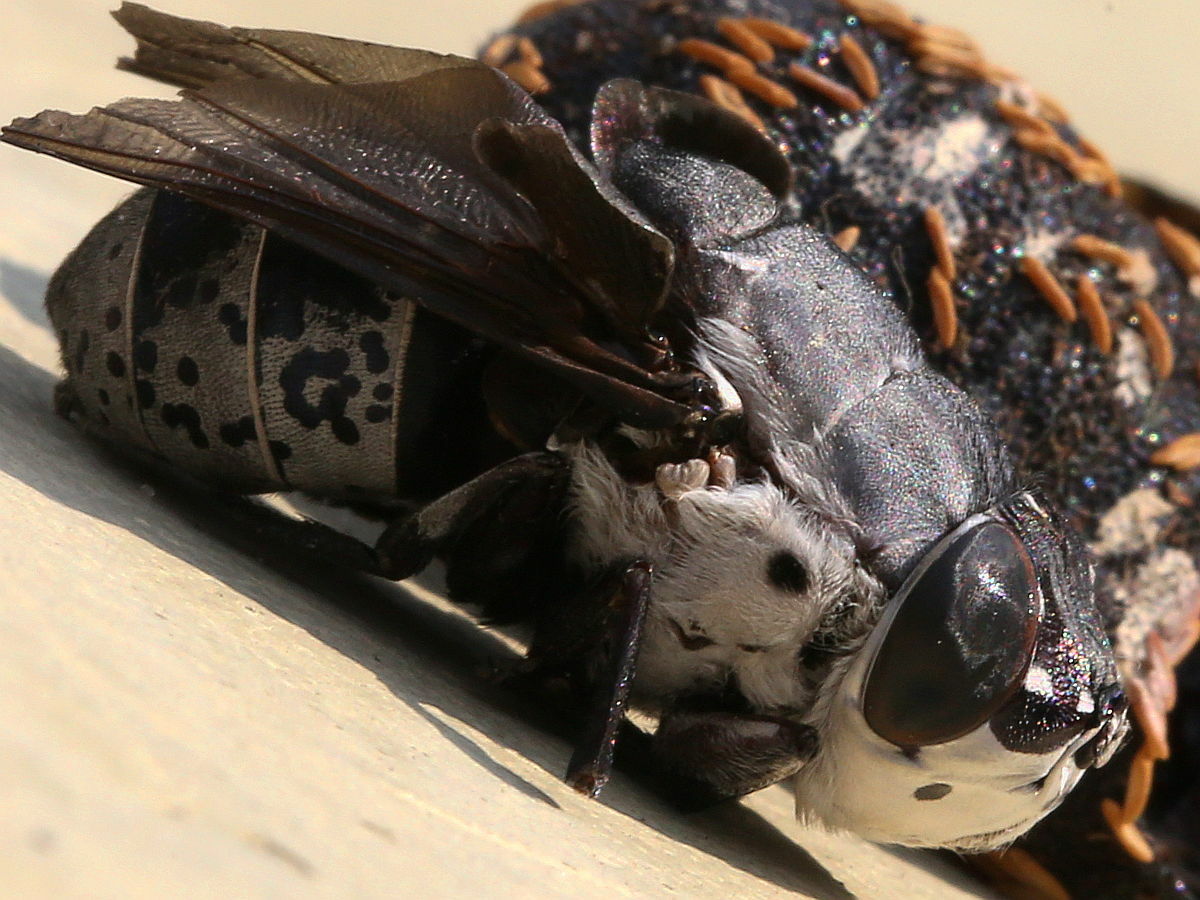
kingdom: Animalia
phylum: Arthropoda
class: Insecta
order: Diptera
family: Oestridae
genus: Cuterebra
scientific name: Cuterebra buccata
